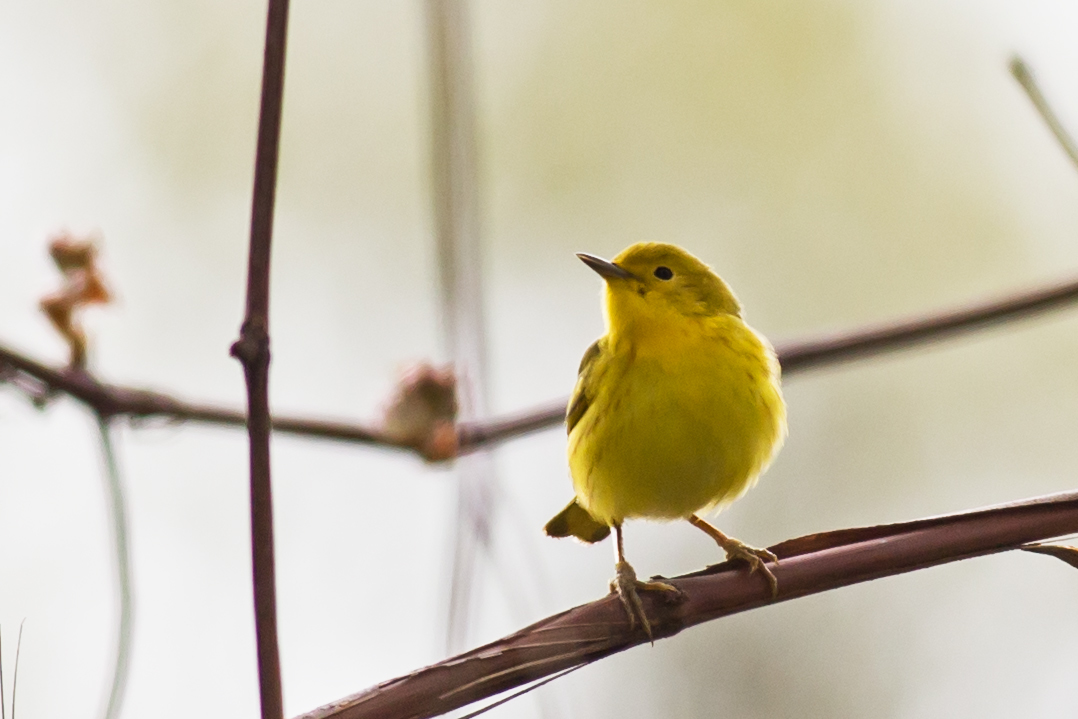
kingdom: Animalia
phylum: Chordata
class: Aves
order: Passeriformes
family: Parulidae
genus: Setophaga
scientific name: Setophaga petechia
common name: Yellow warbler
